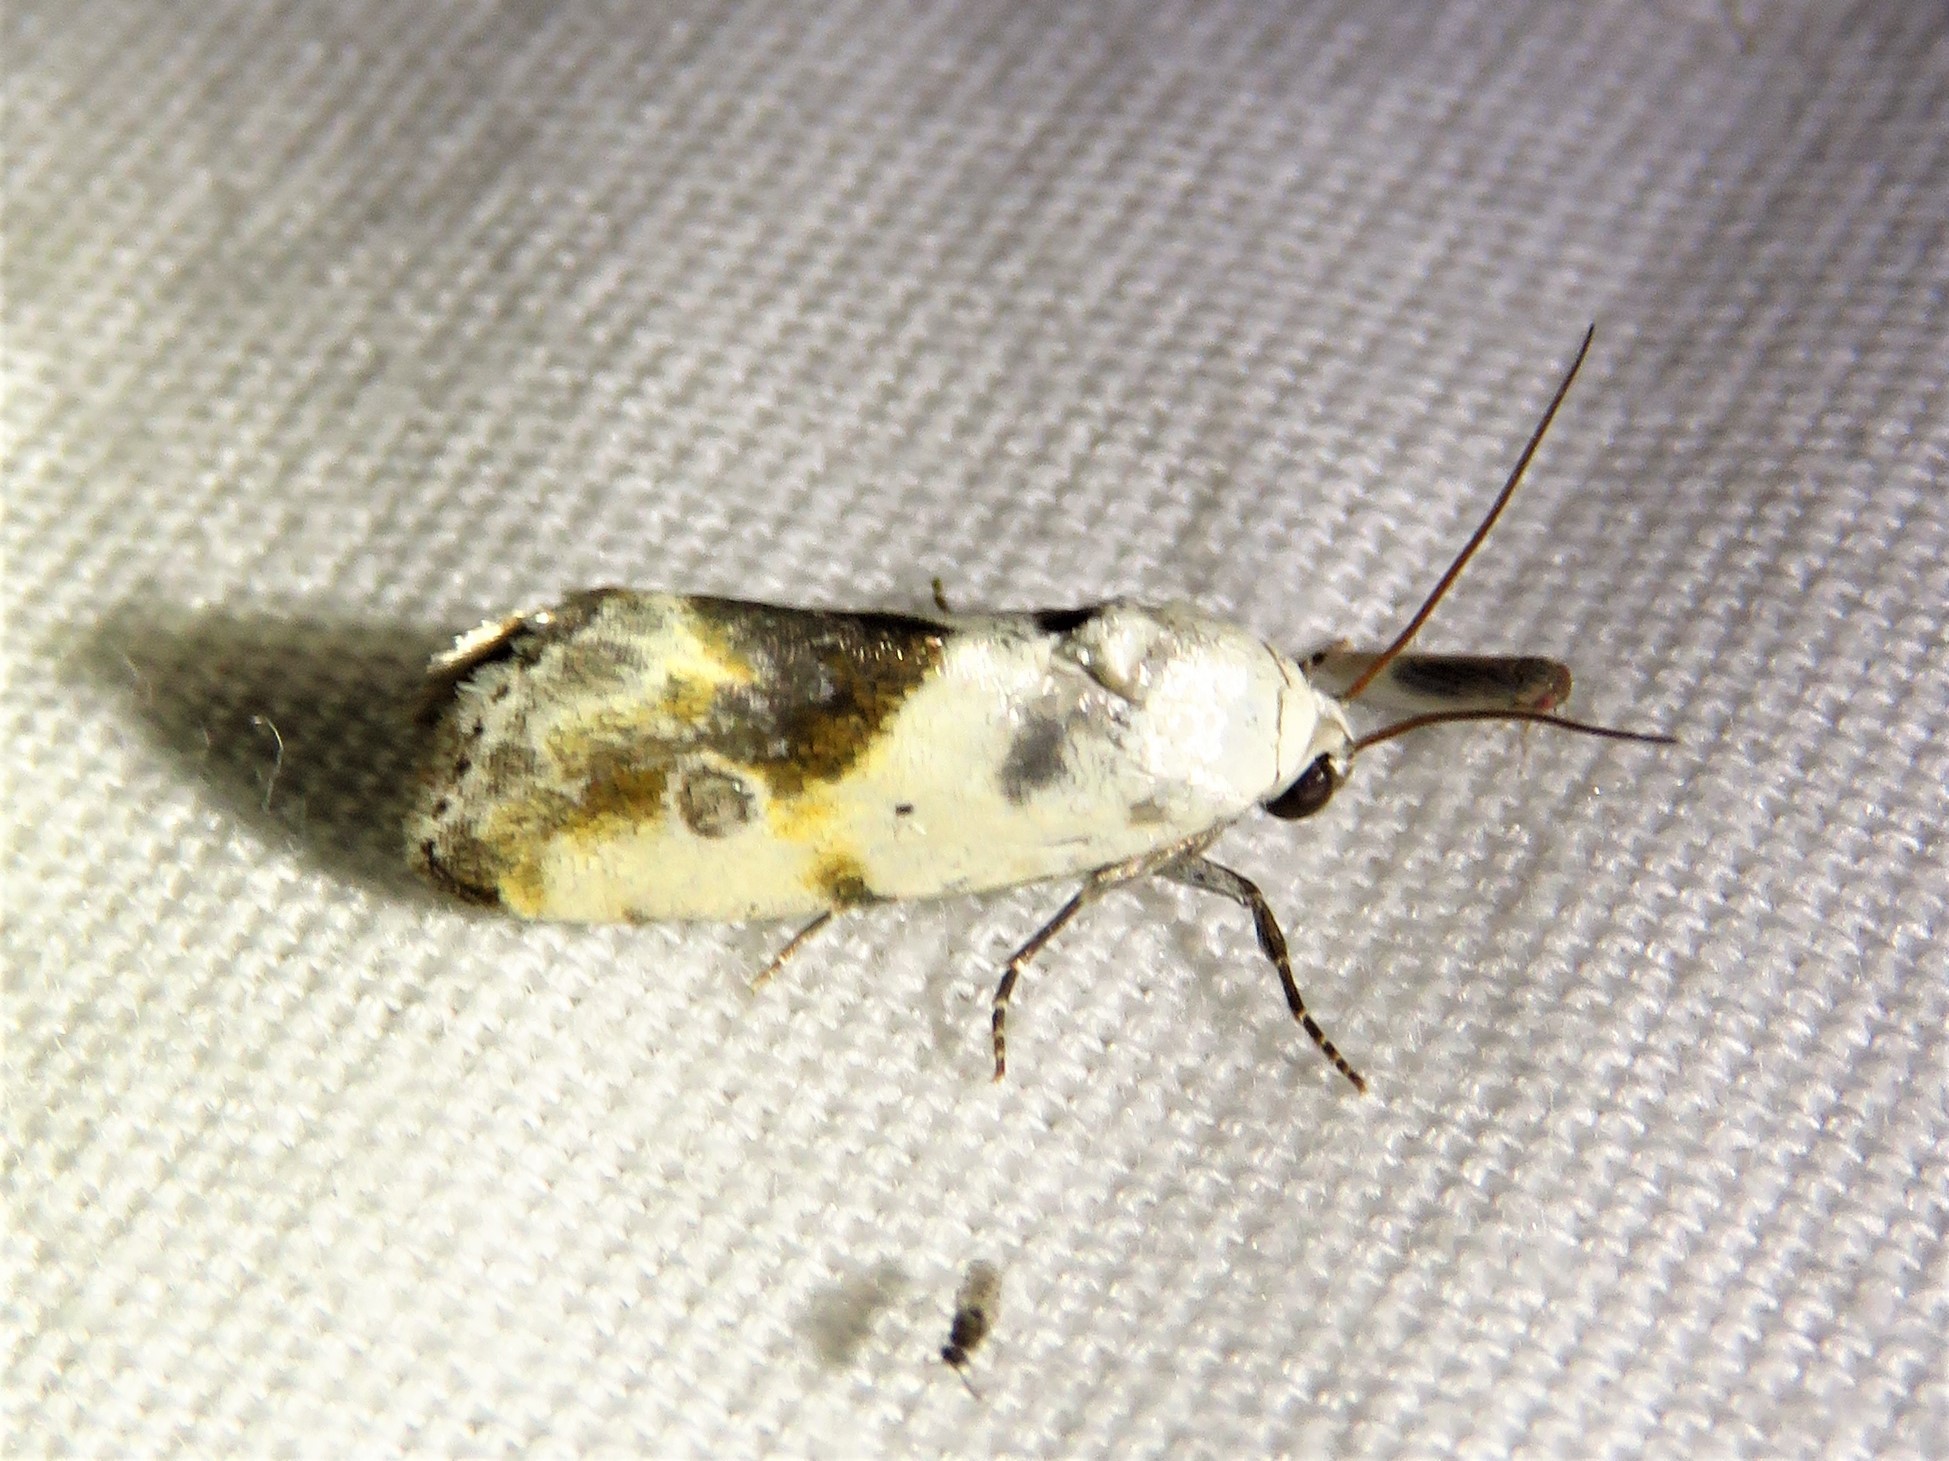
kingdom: Animalia
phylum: Arthropoda
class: Insecta
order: Lepidoptera
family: Noctuidae
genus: Acontia
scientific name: Acontia candefacta
